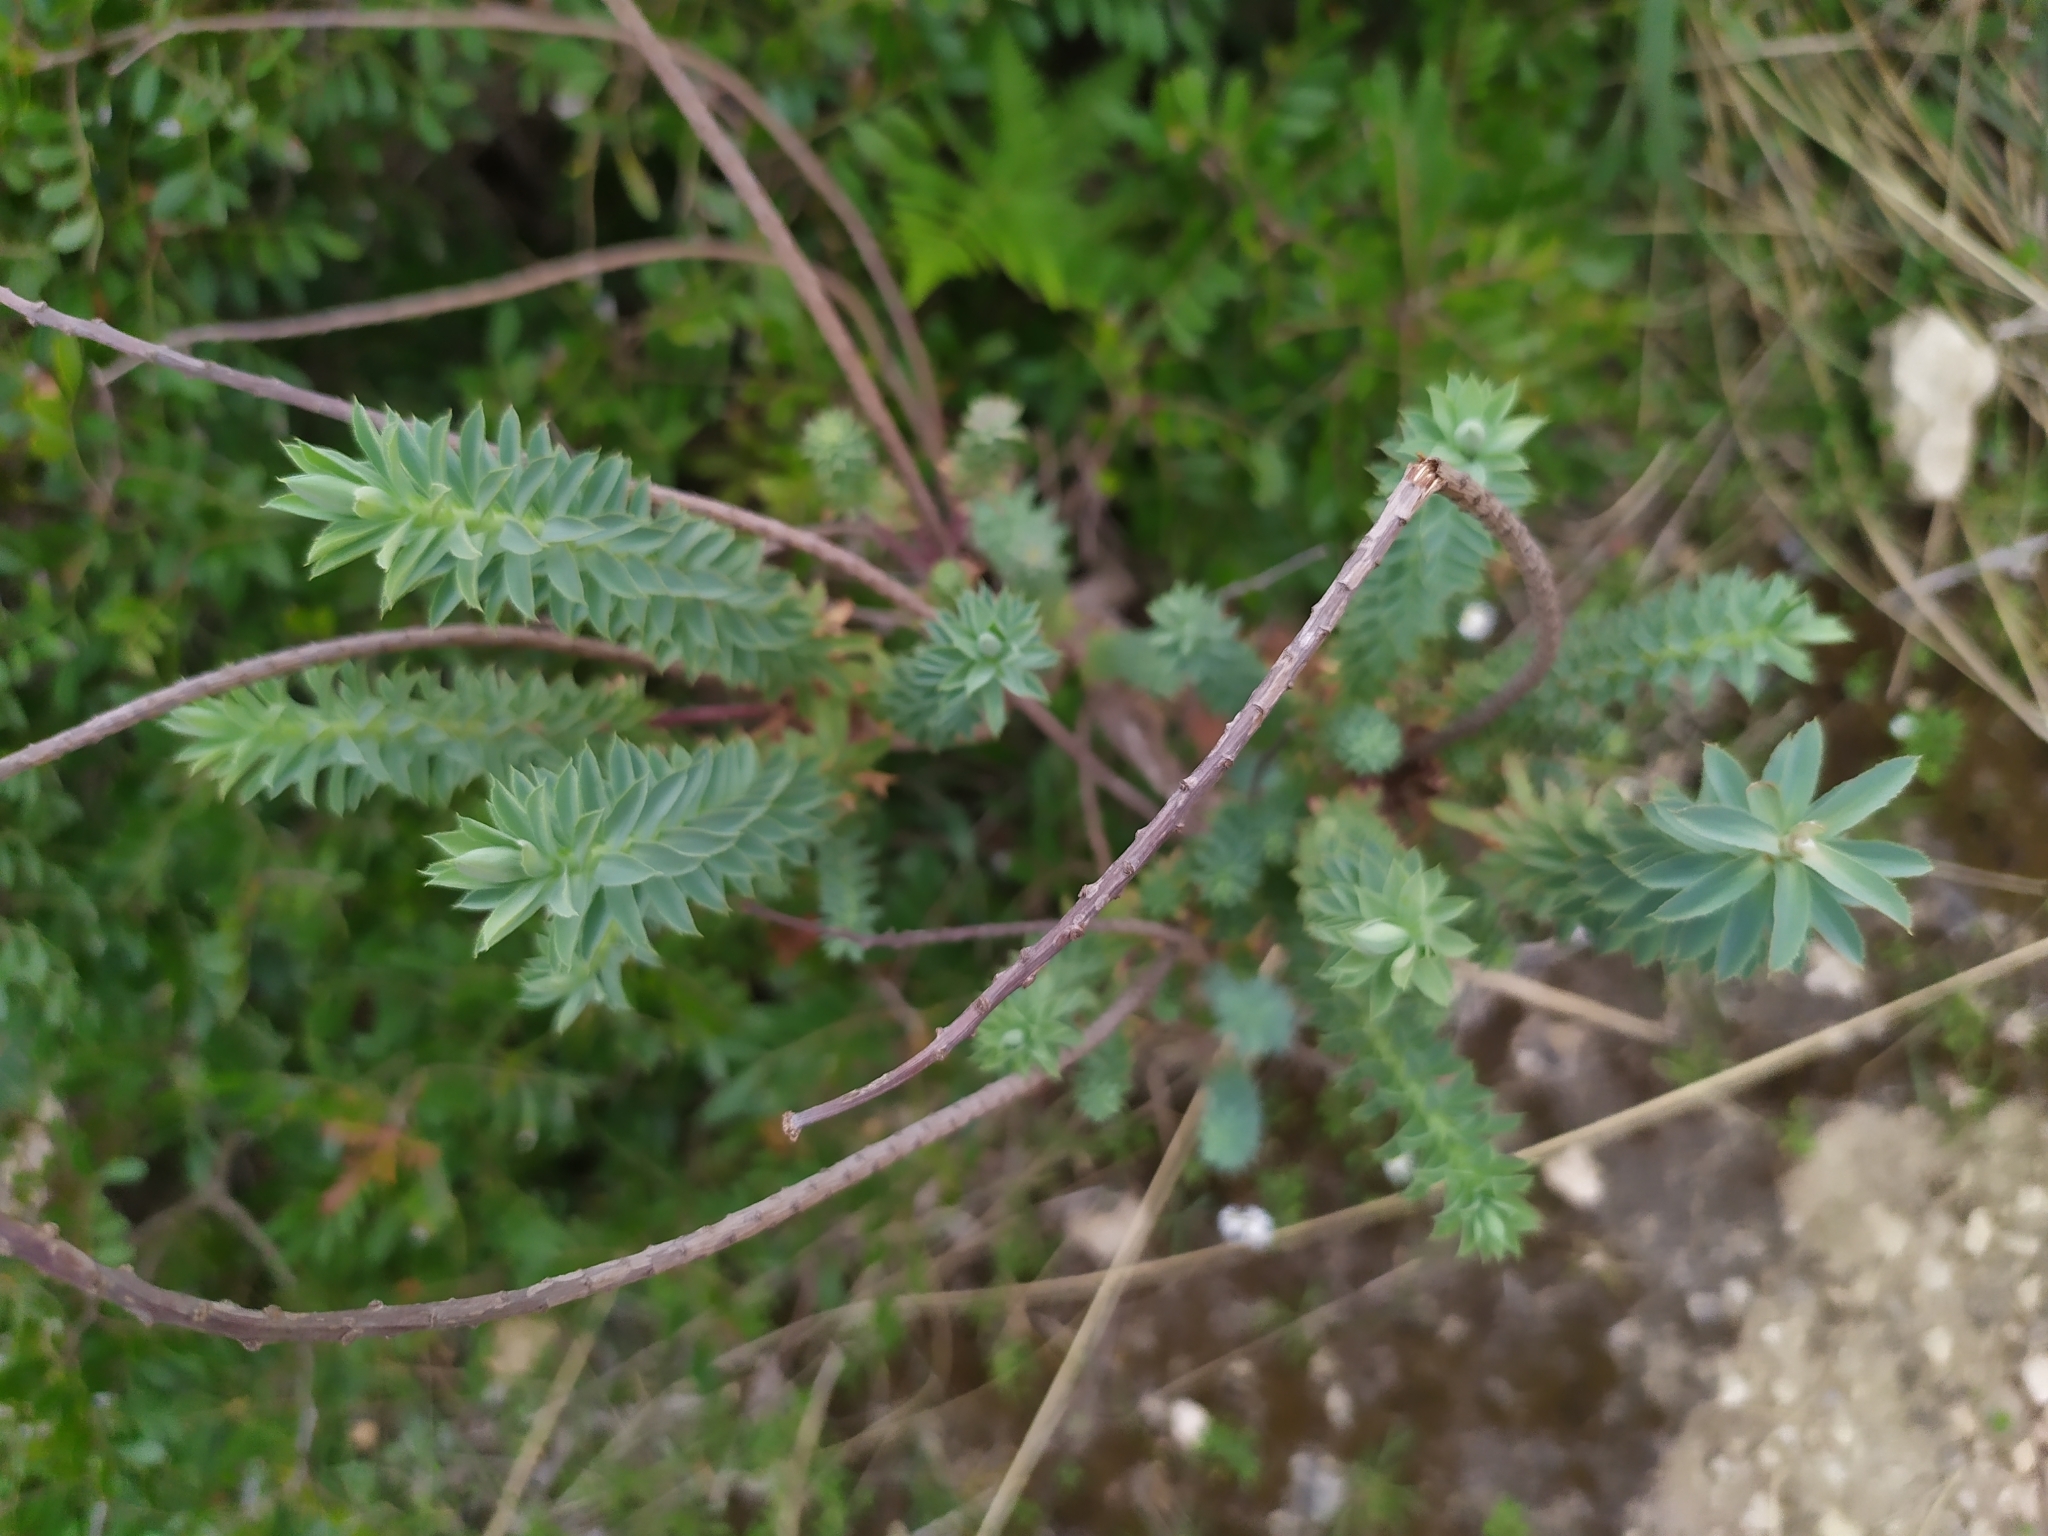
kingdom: Plantae
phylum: Tracheophyta
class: Magnoliopsida
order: Malpighiales
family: Euphorbiaceae
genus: Euphorbia
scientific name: Euphorbia pithyusa
